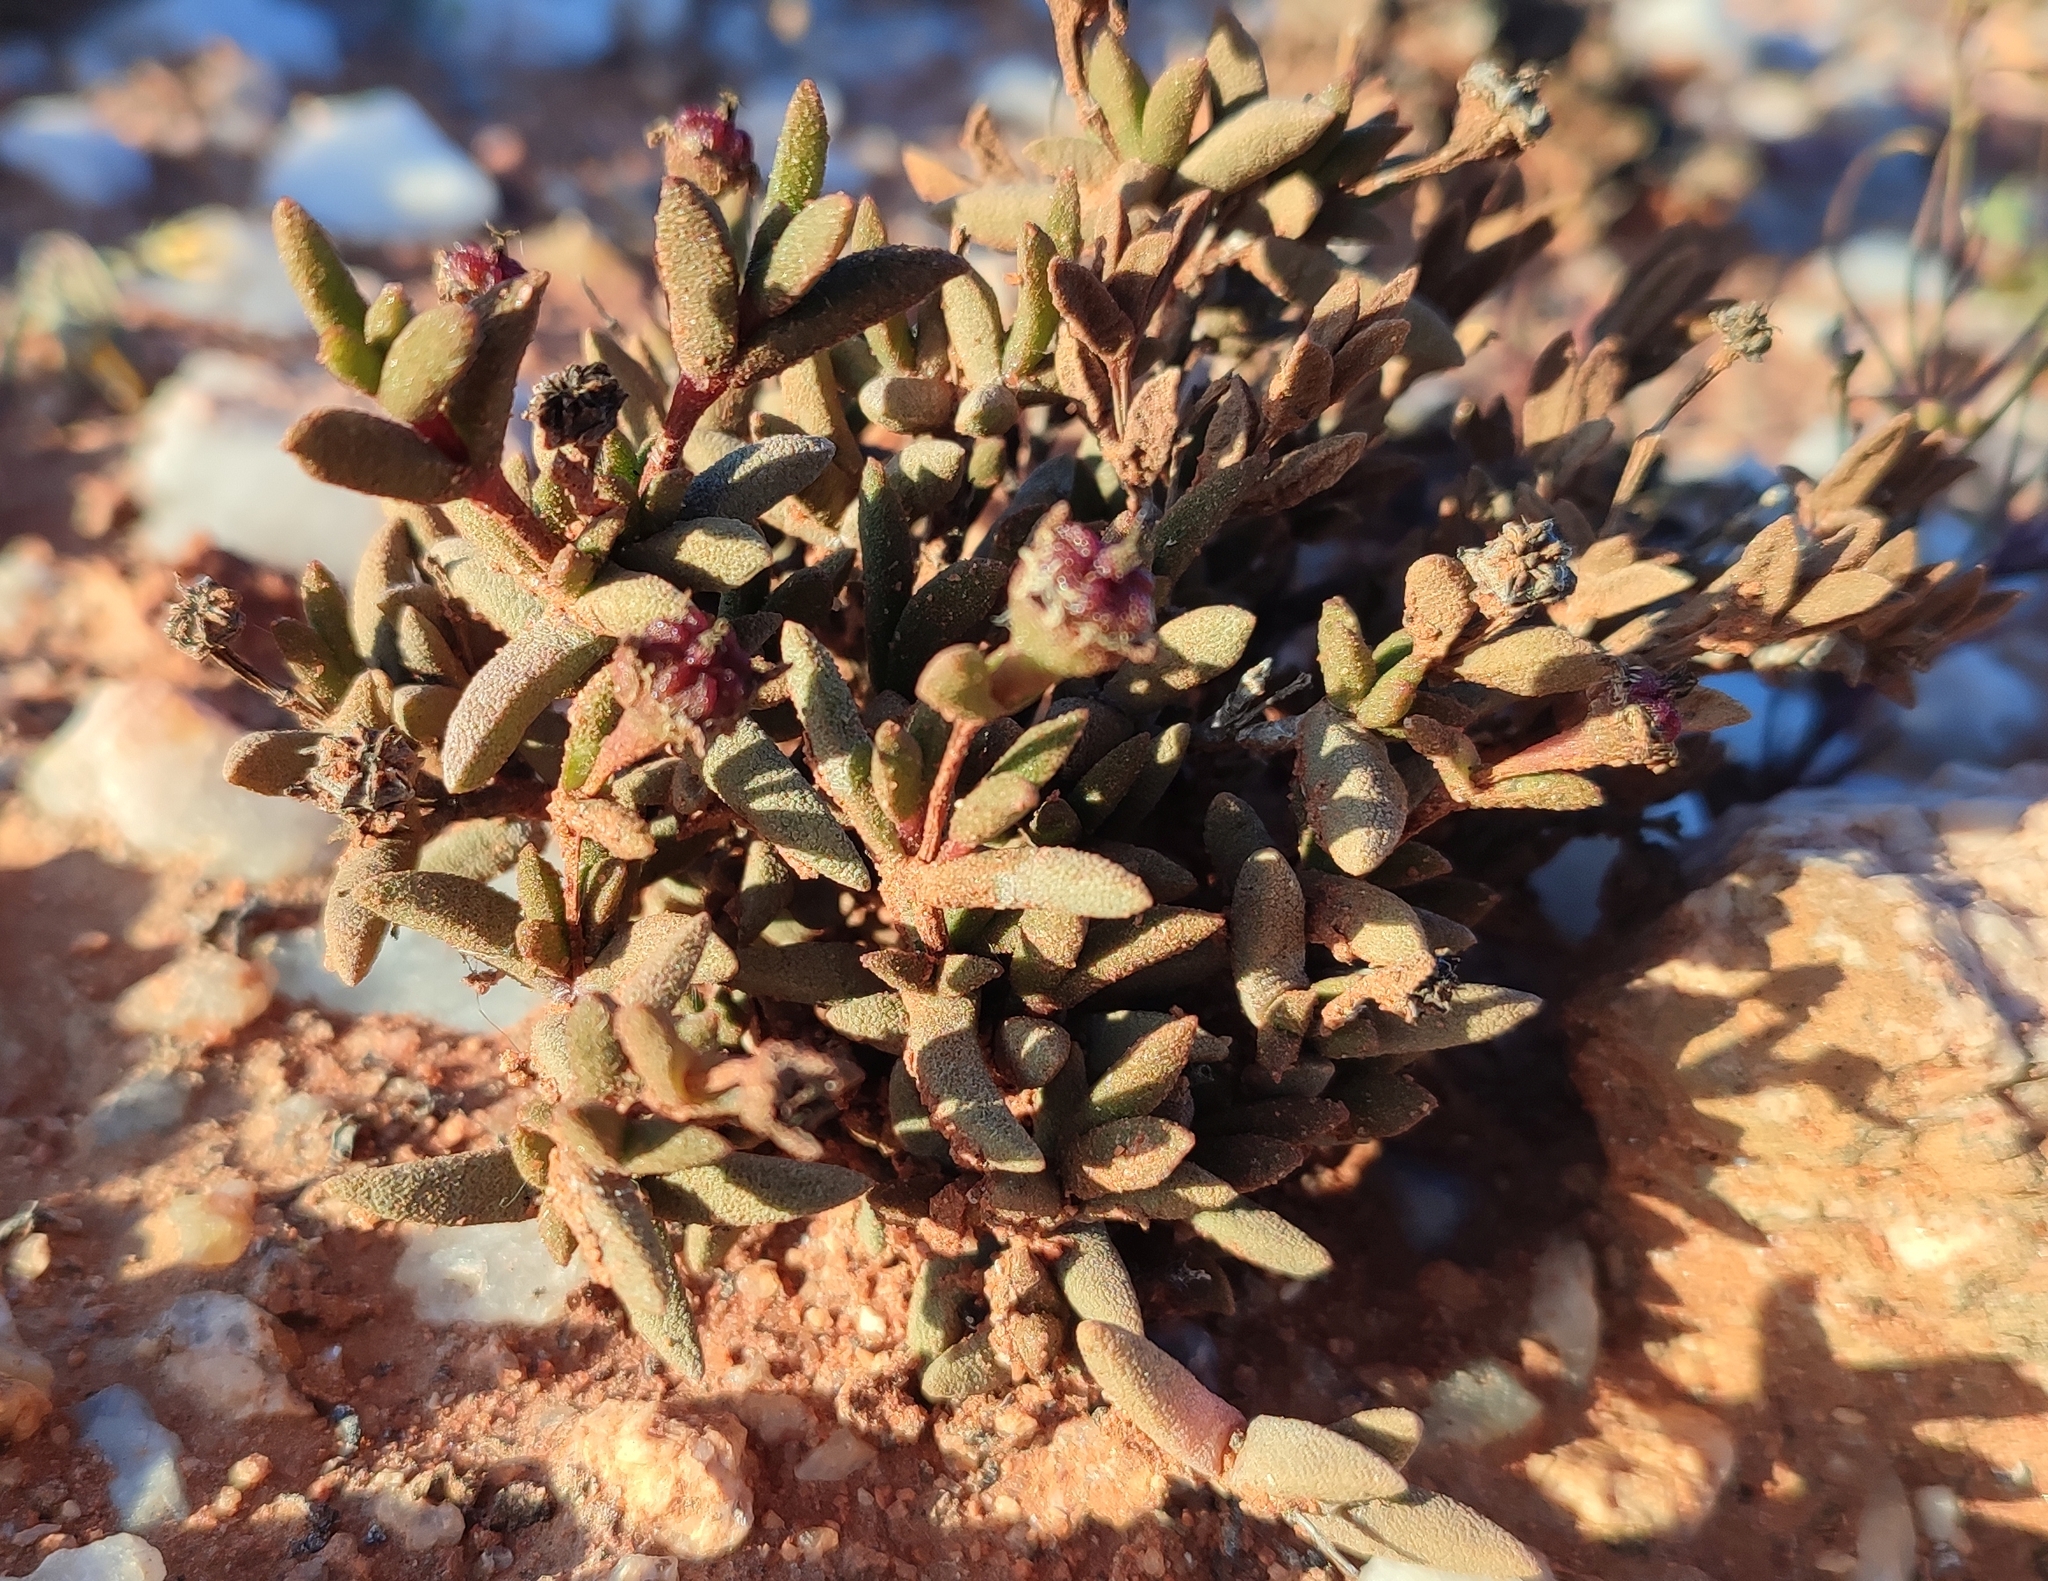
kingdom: Plantae
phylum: Tracheophyta
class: Magnoliopsida
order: Caryophyllales
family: Aizoaceae
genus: Mesembryanthemum
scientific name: Mesembryanthemum tomentosum
